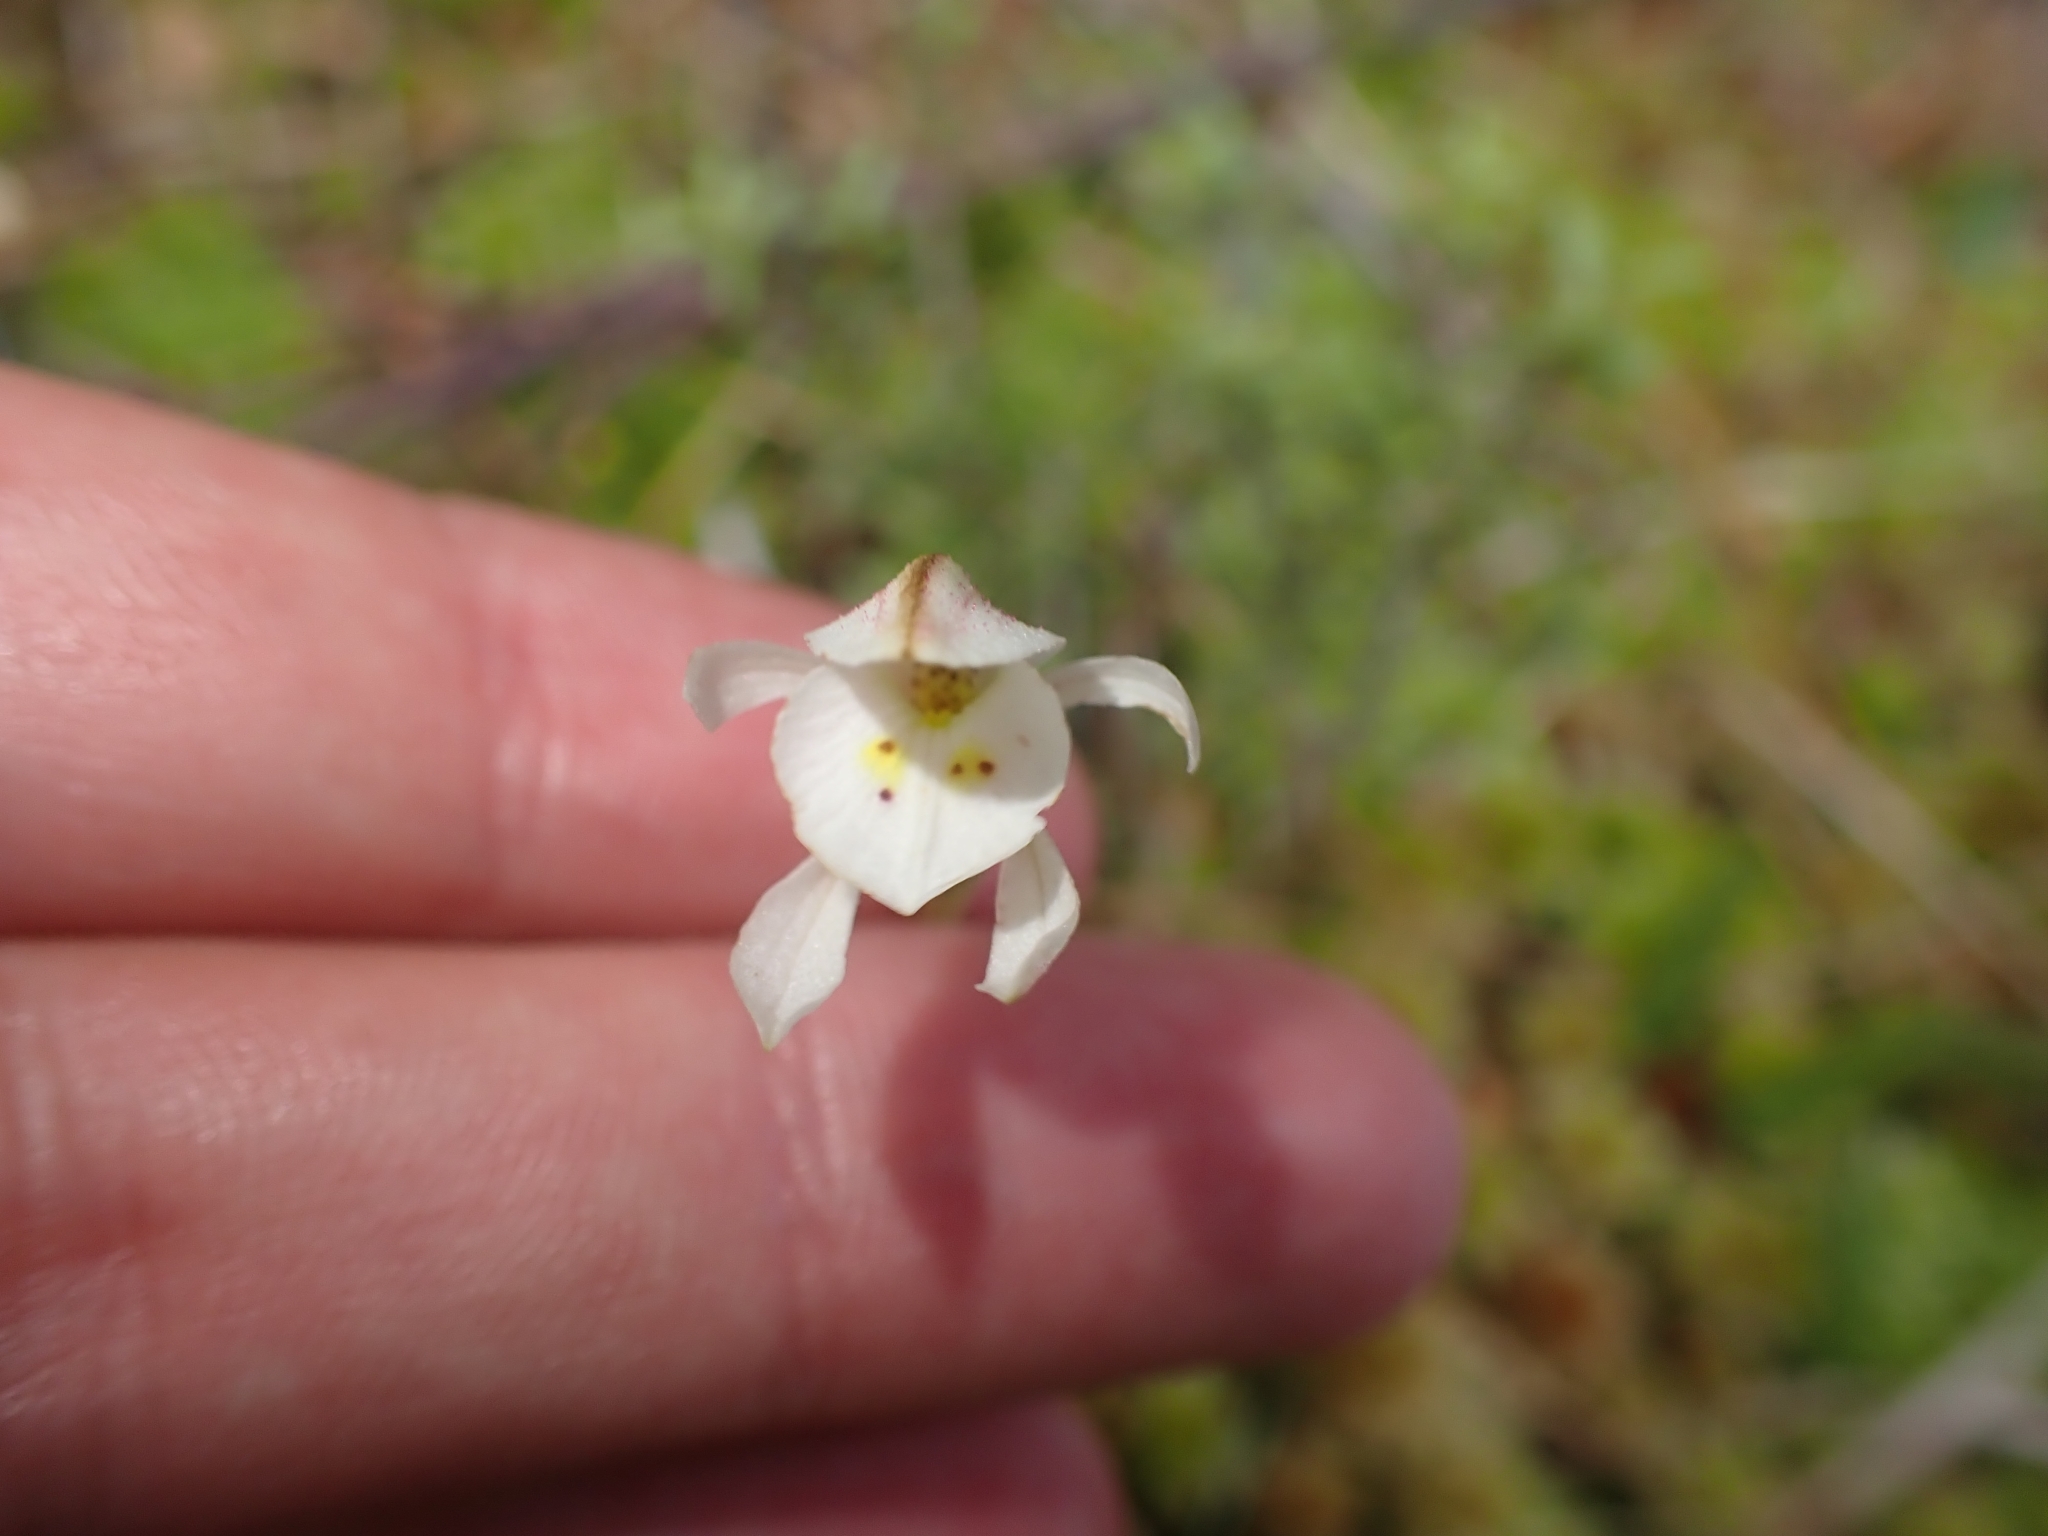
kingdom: Plantae
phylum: Tracheophyta
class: Liliopsida
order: Asparagales
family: Orchidaceae
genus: Aporostylis
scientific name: Aporostylis bifolia
